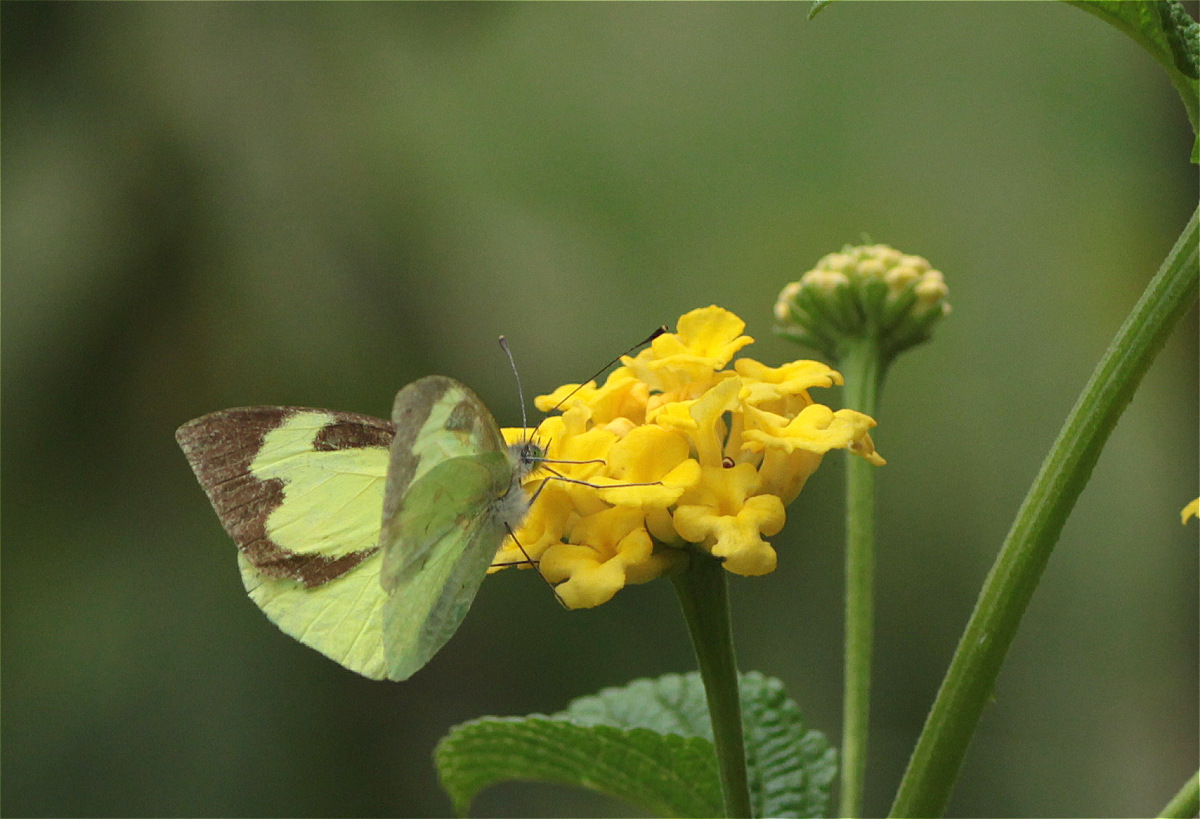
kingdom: Animalia
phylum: Arthropoda
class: Insecta
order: Lepidoptera
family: Pieridae
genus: Leptophobia
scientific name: Leptophobia eleone
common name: Silky wanderer
